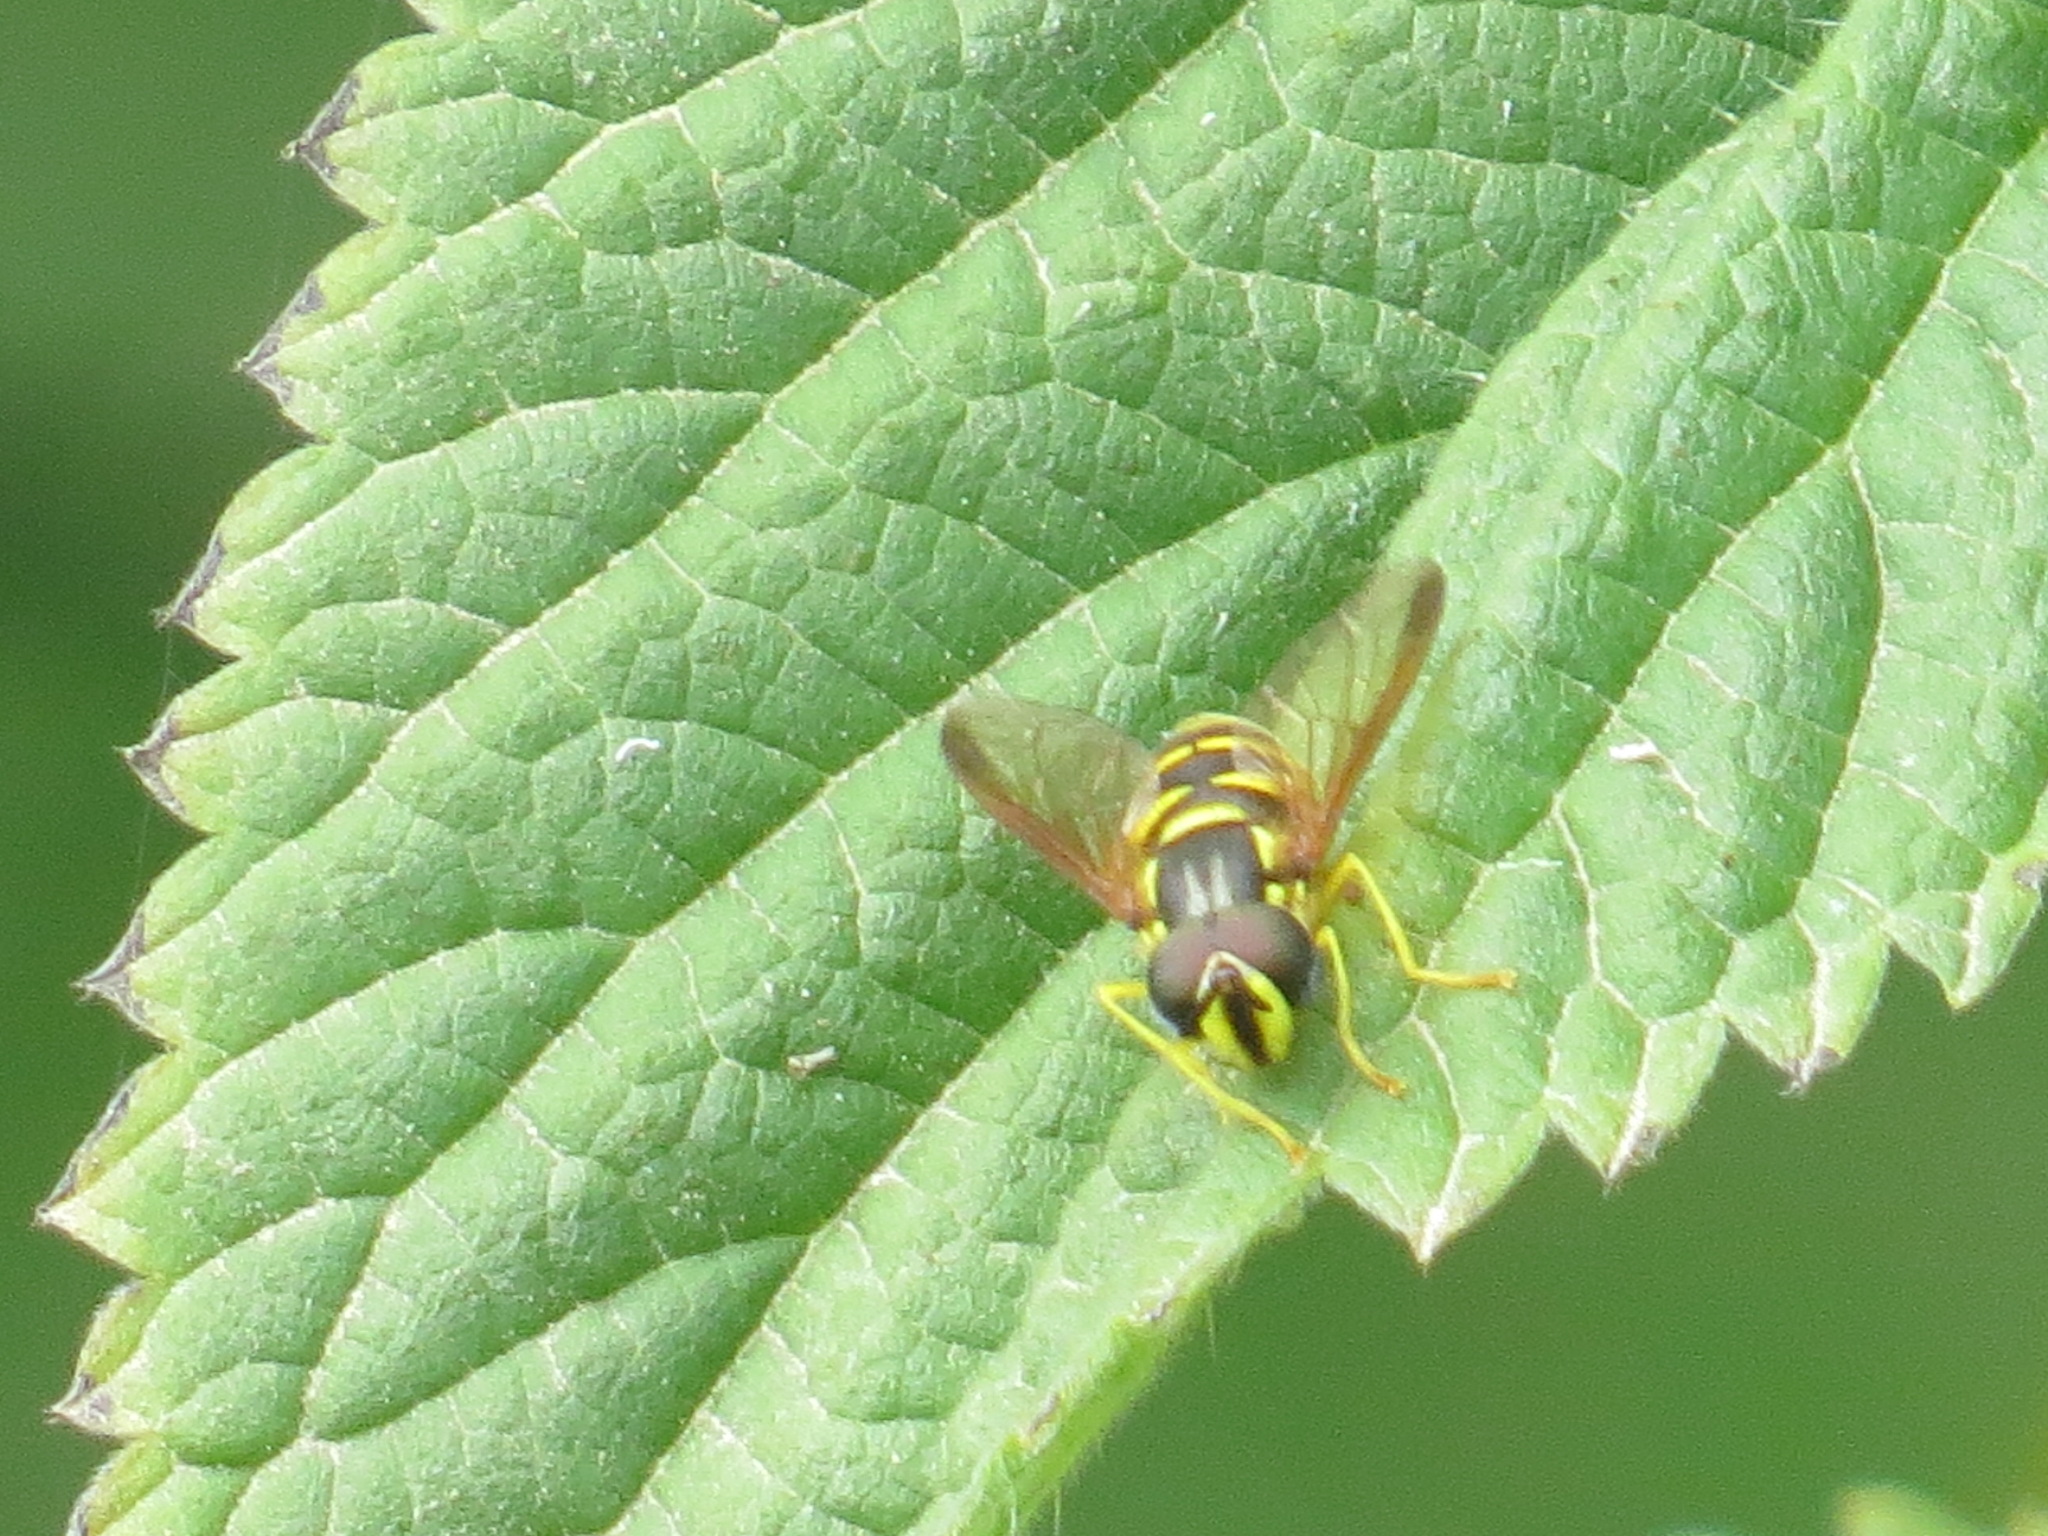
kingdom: Animalia
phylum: Arthropoda
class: Insecta
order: Diptera
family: Syrphidae
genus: Chrysotoxum
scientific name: Chrysotoxum
